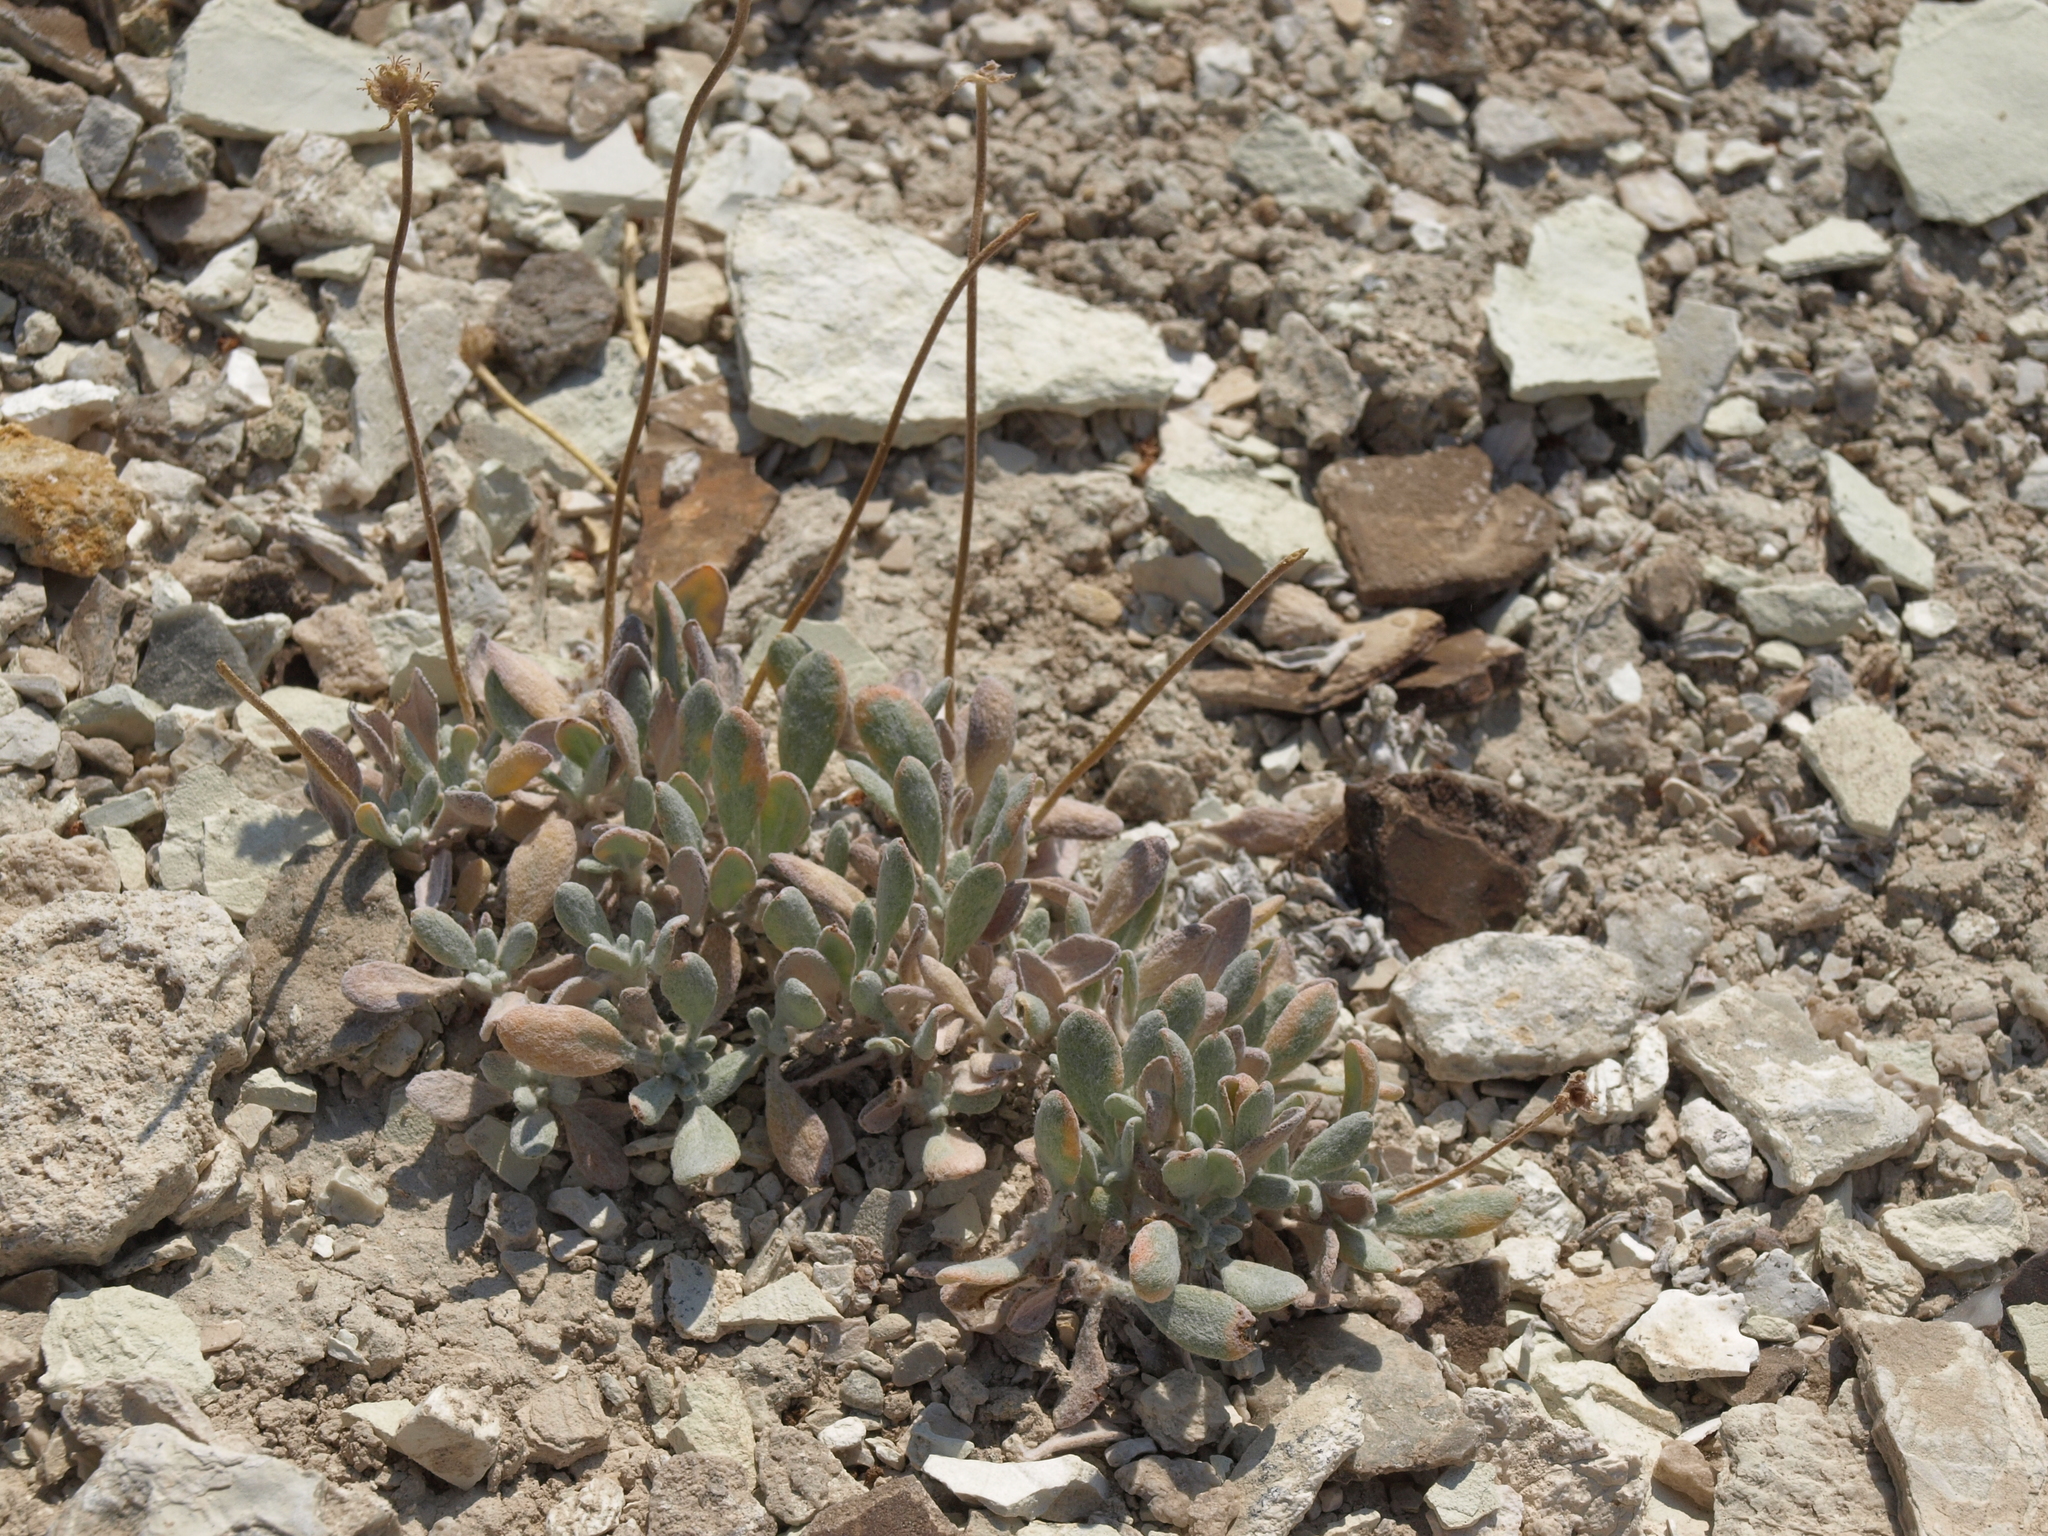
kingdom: Plantae
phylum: Tracheophyta
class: Magnoliopsida
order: Caryophyllales
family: Polygonaceae
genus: Eriogonum
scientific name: Eriogonum tiehmii
